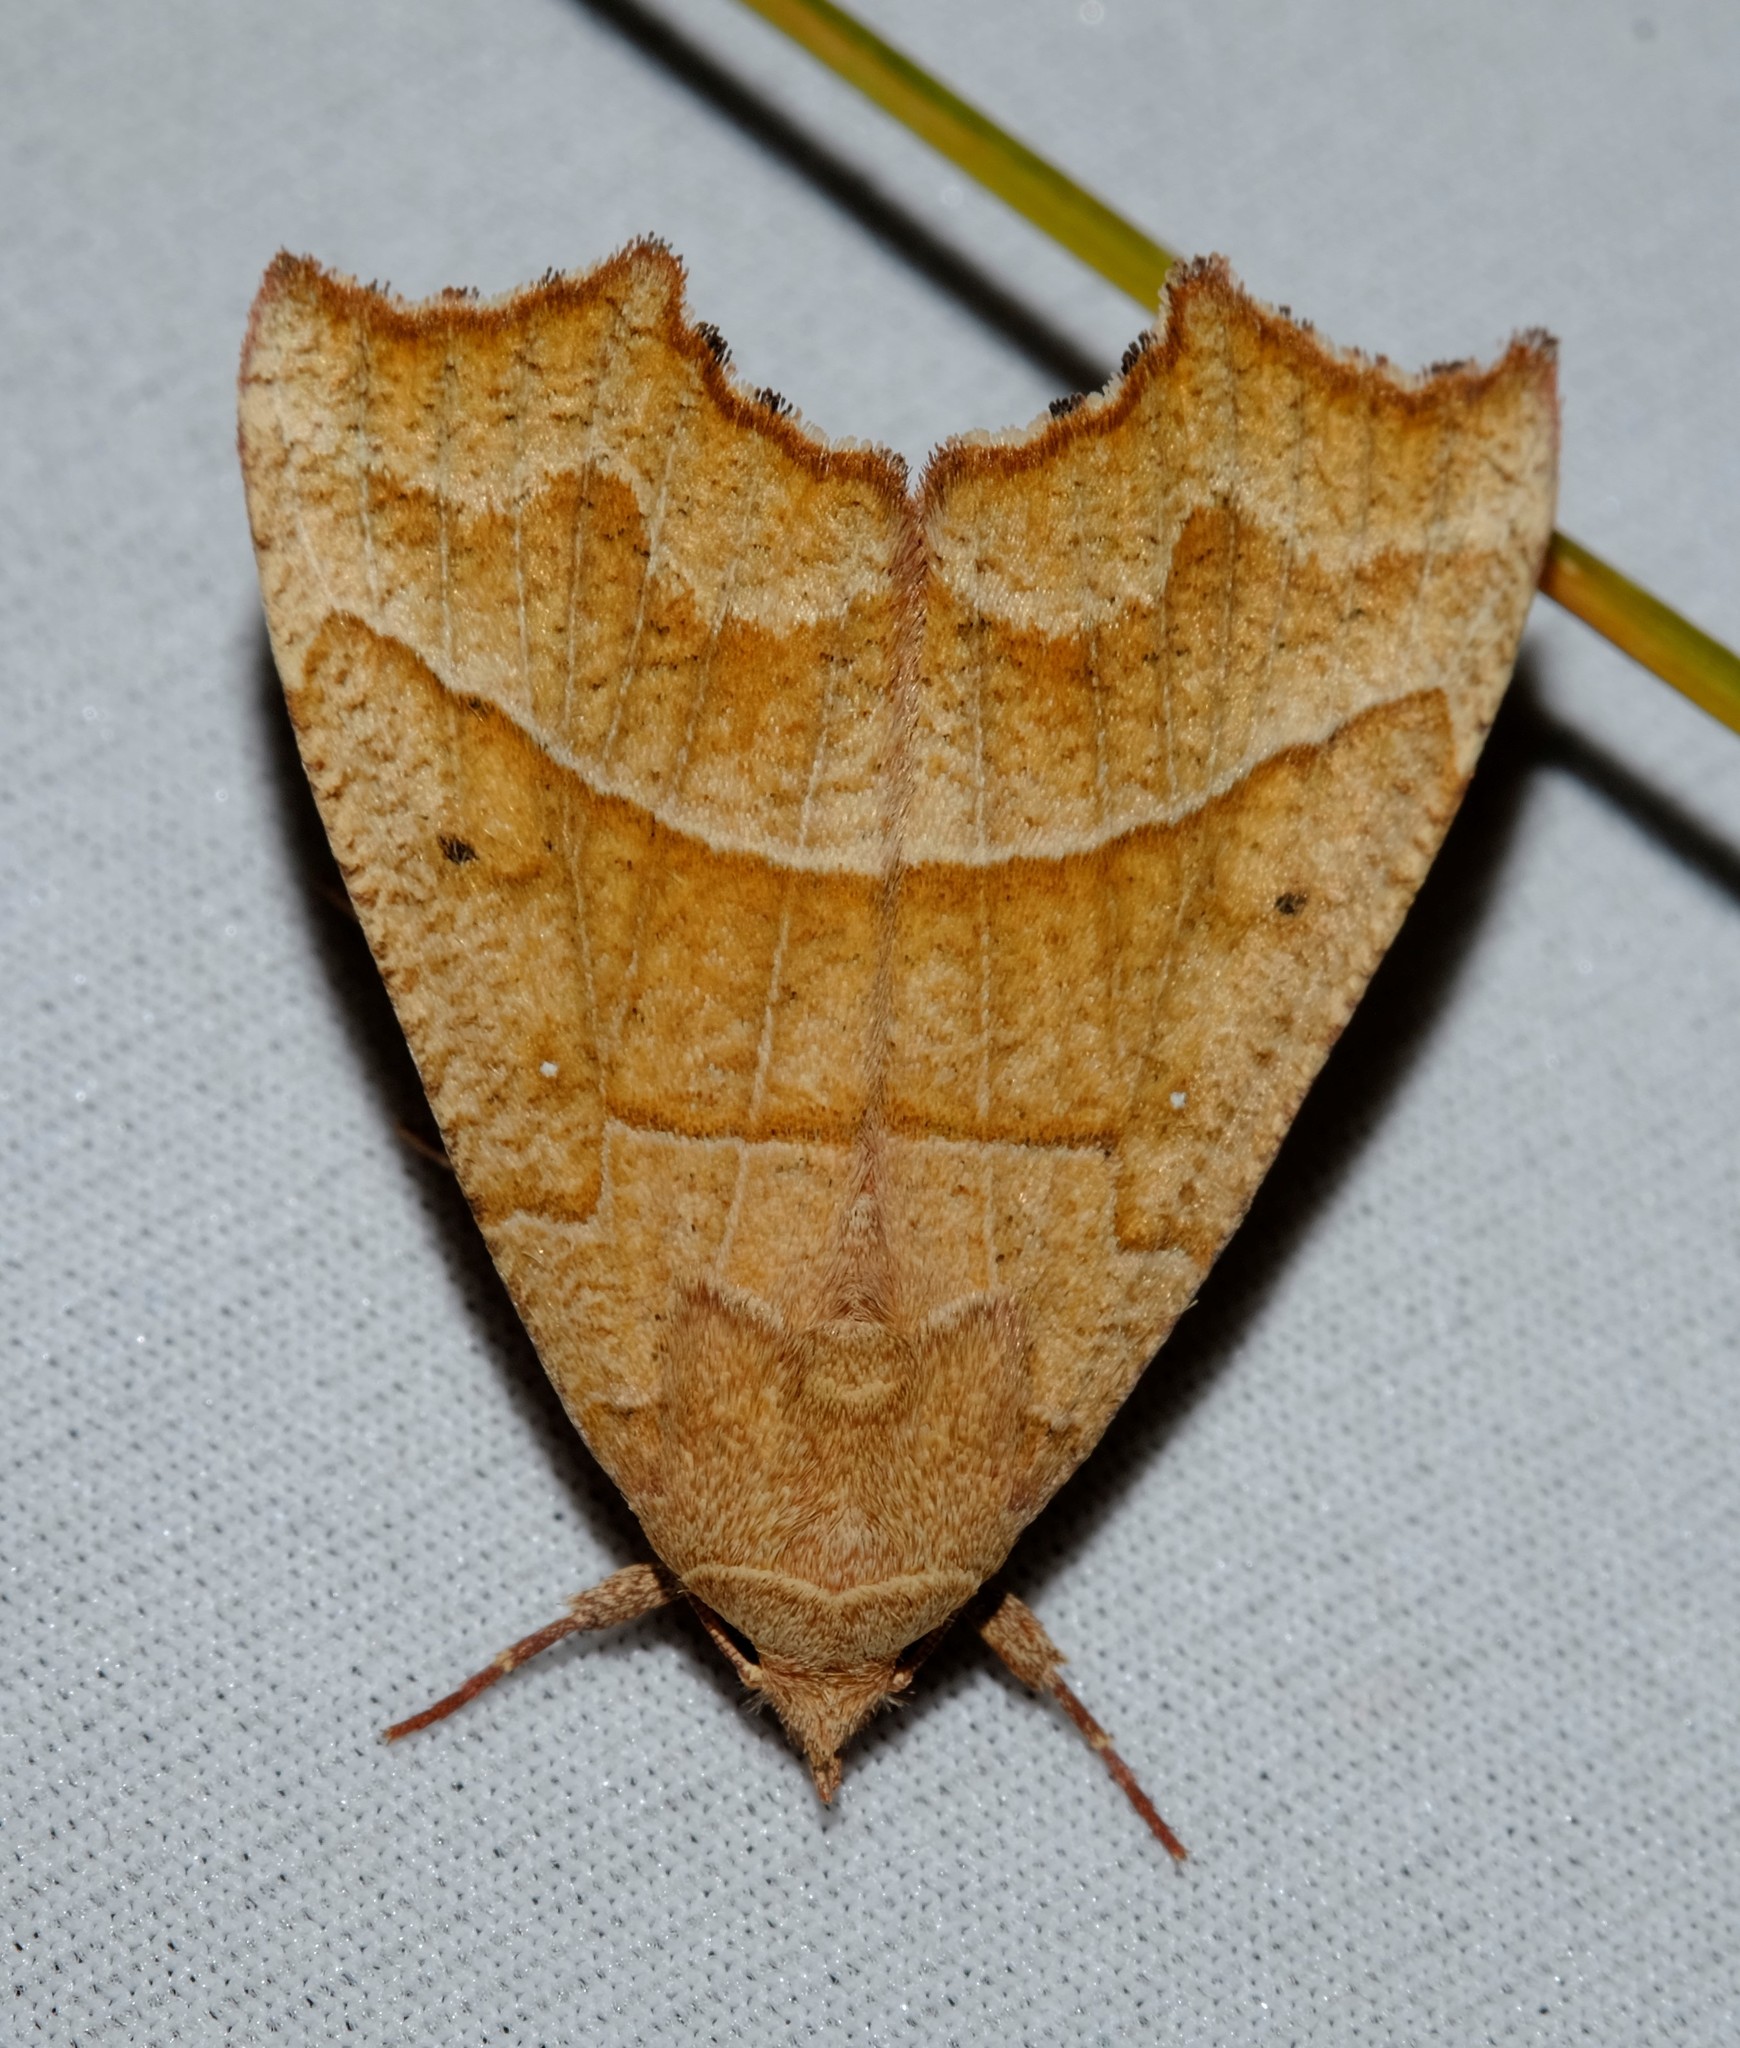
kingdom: Animalia
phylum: Arthropoda
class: Insecta
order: Lepidoptera
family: Erebidae
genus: Anomis
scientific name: Anomis psamathodes
